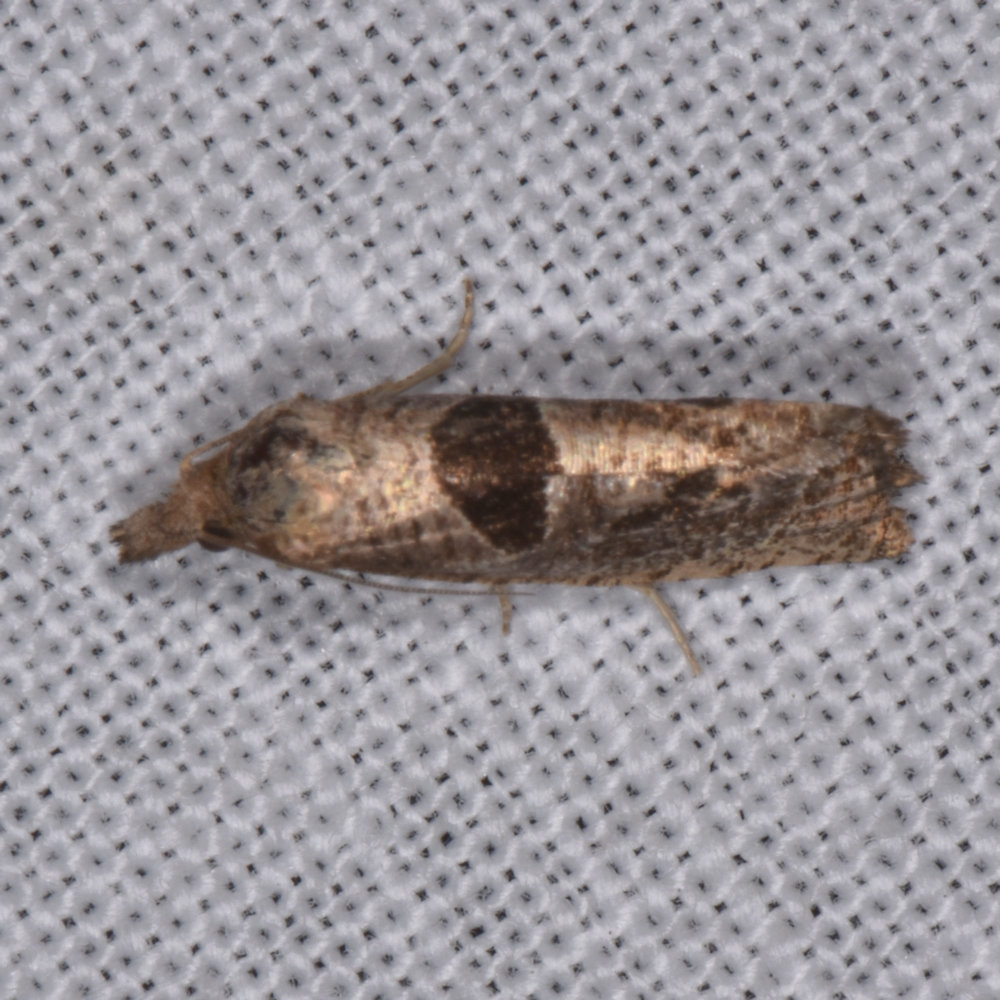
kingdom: Animalia
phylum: Arthropoda
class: Insecta
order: Lepidoptera
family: Tortricidae
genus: Pelochrista
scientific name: Pelochrista dorsisignatana
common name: Triangle-backed pelochrista moth
